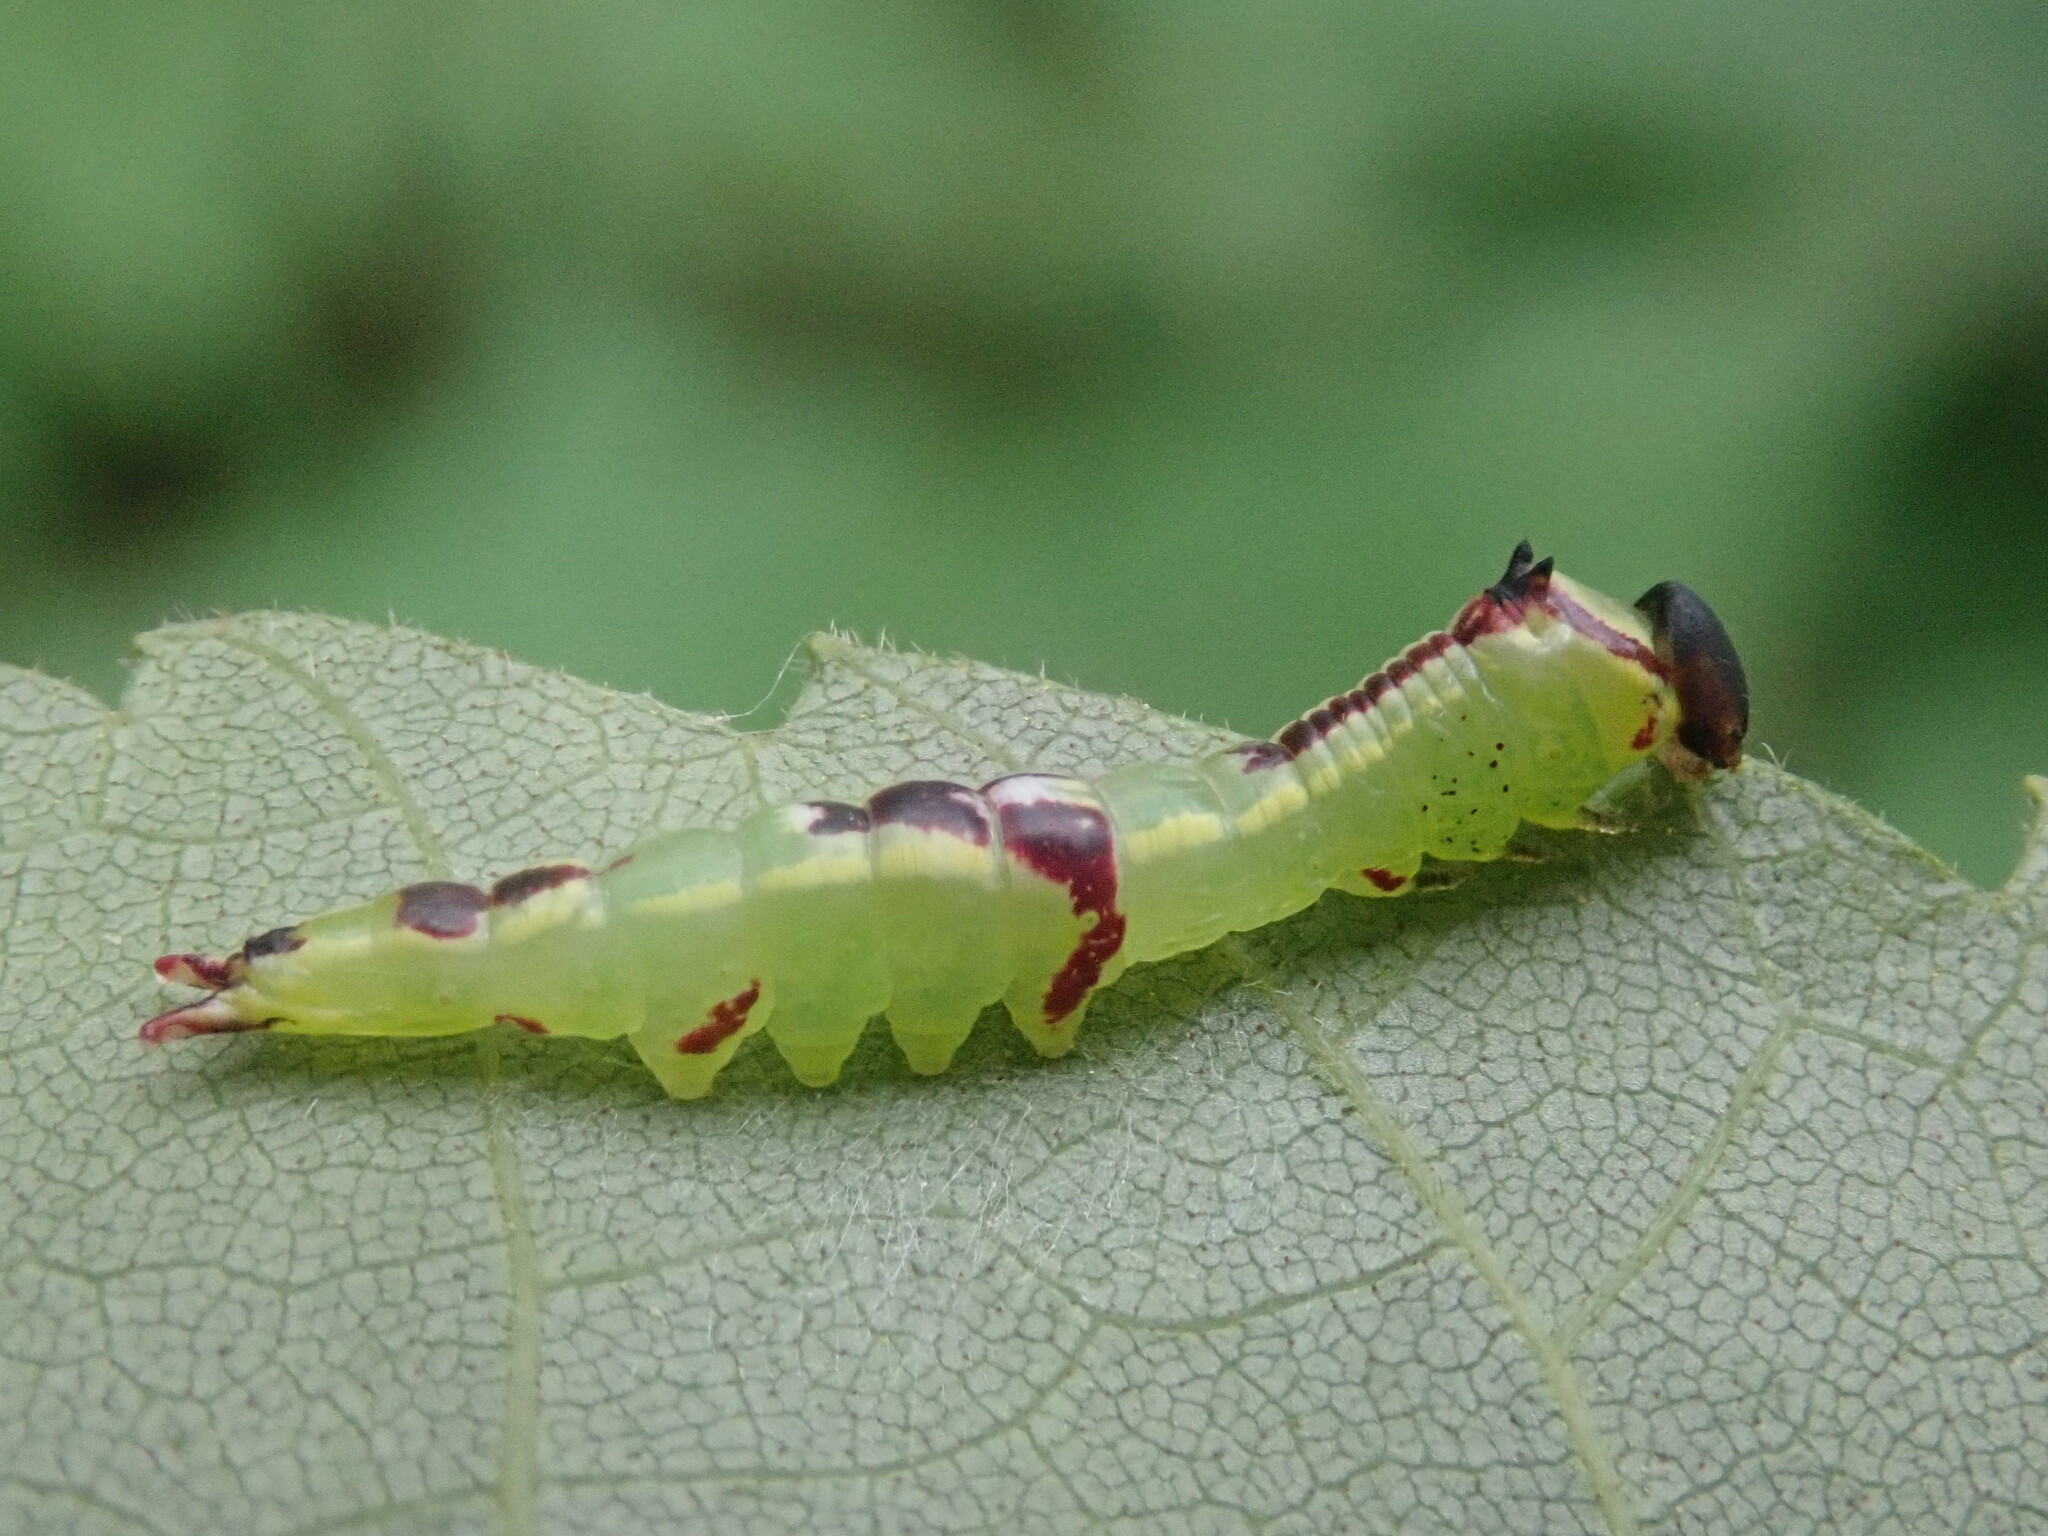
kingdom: Animalia
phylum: Arthropoda
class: Insecta
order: Lepidoptera
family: Notodontidae
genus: Disphragis
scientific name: Disphragis Cecrita guttivitta
